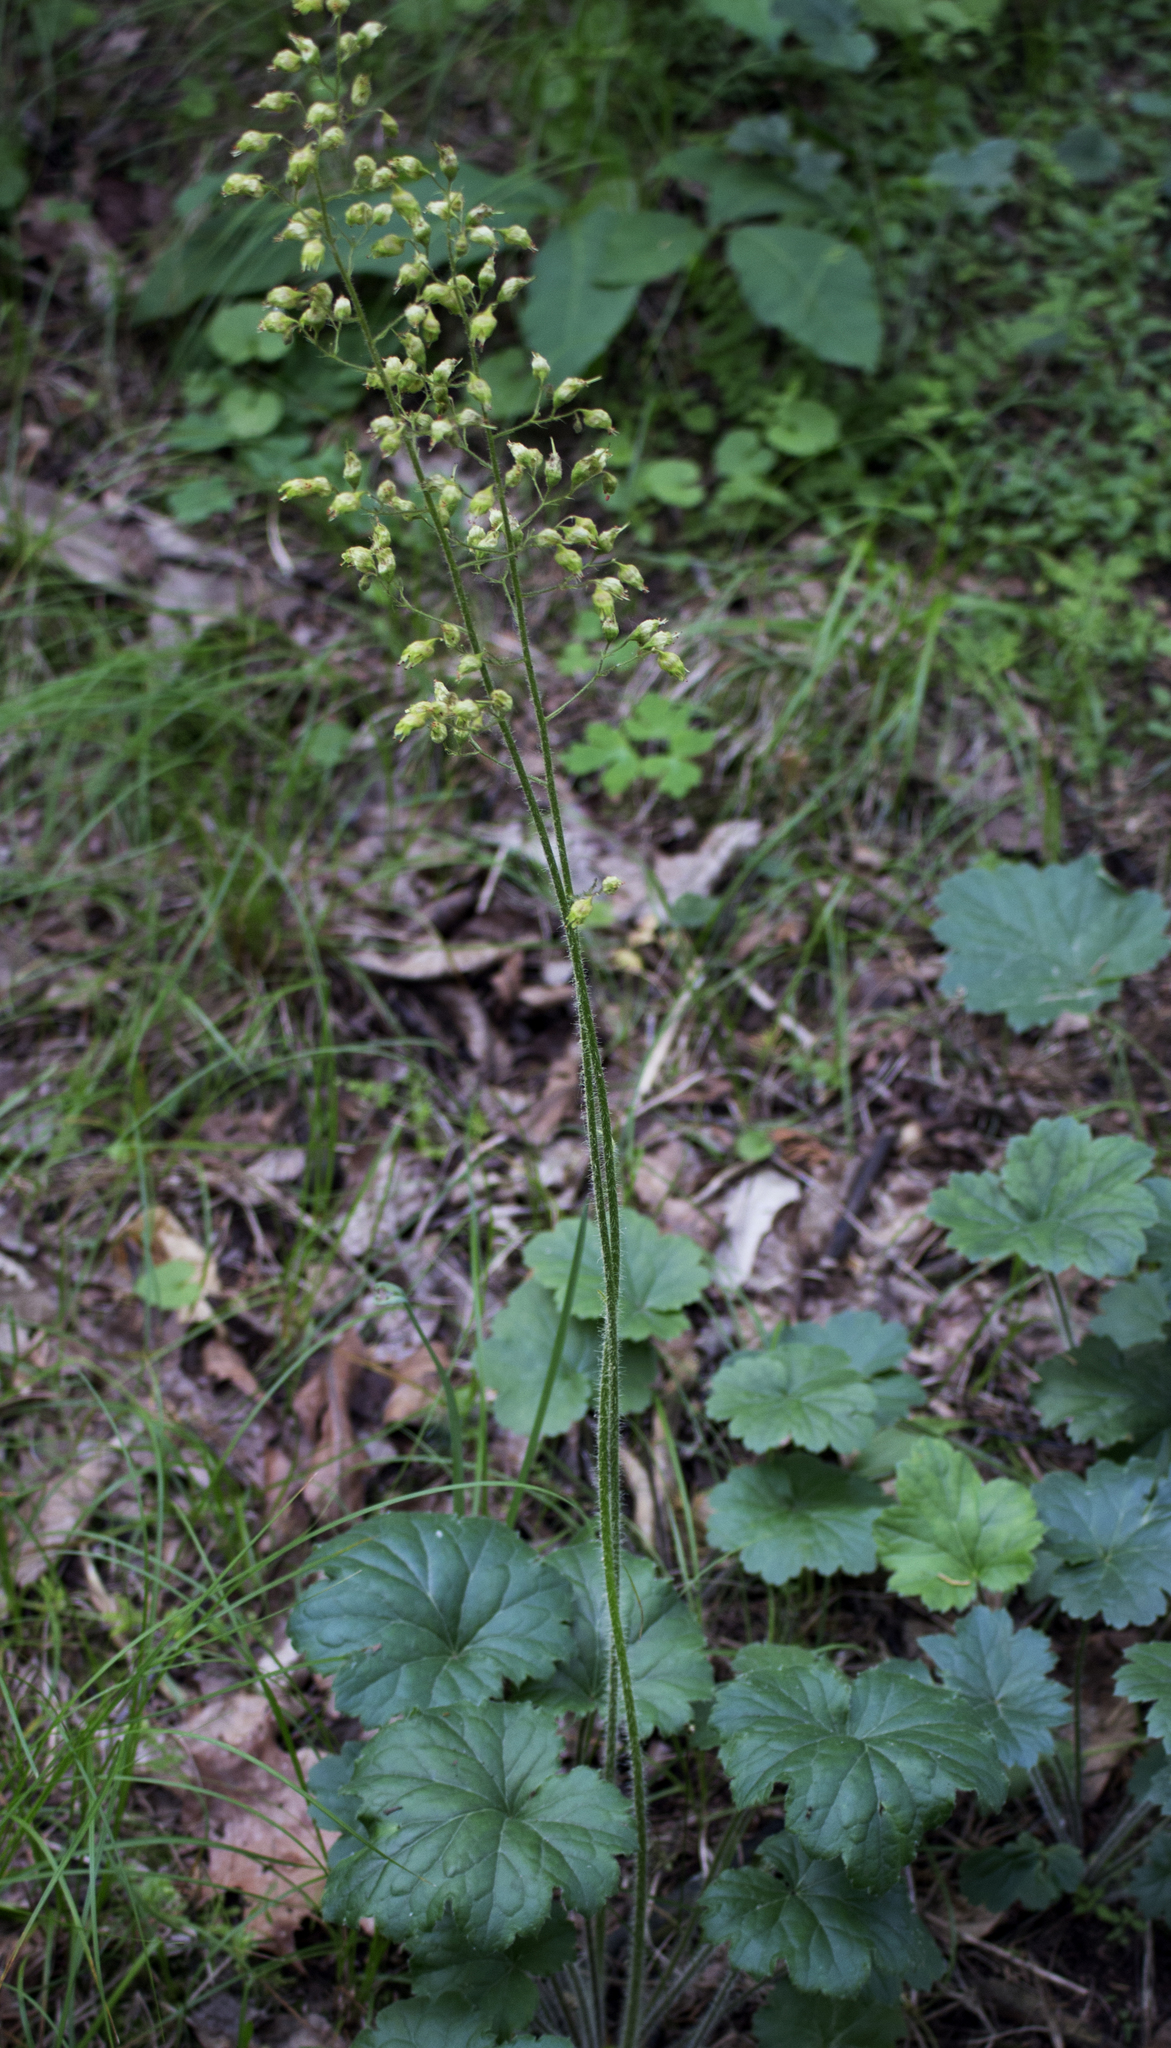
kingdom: Plantae
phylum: Tracheophyta
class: Magnoliopsida
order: Saxifragales
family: Saxifragaceae
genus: Heuchera
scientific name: Heuchera richardsonii
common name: Richardson's alumroot
